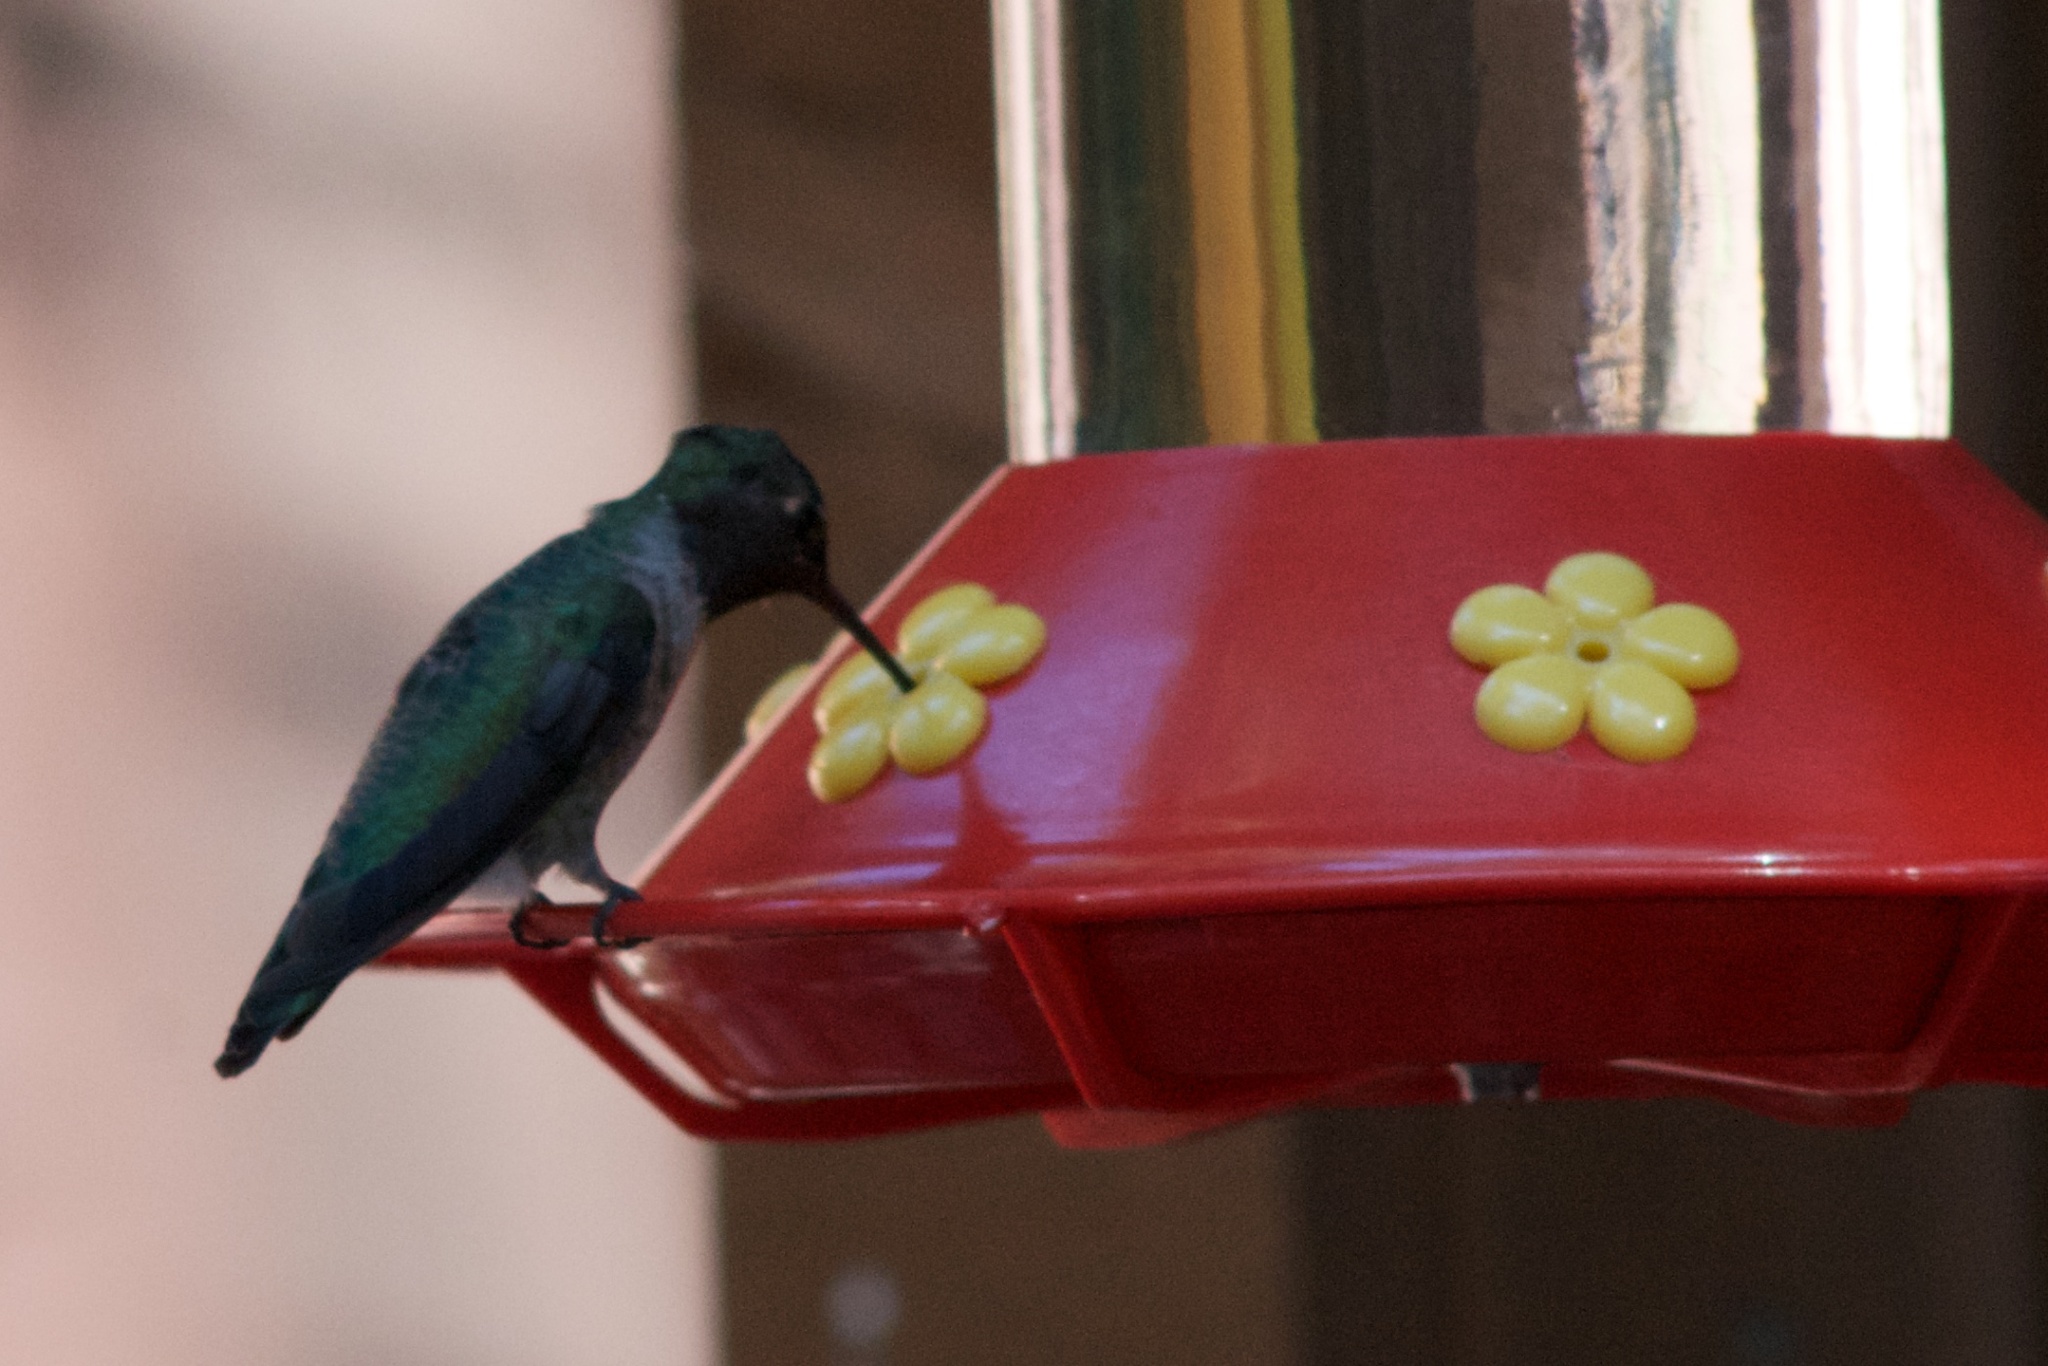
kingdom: Animalia
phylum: Chordata
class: Aves
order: Apodiformes
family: Trochilidae
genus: Calypte
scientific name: Calypte anna
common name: Anna's hummingbird
